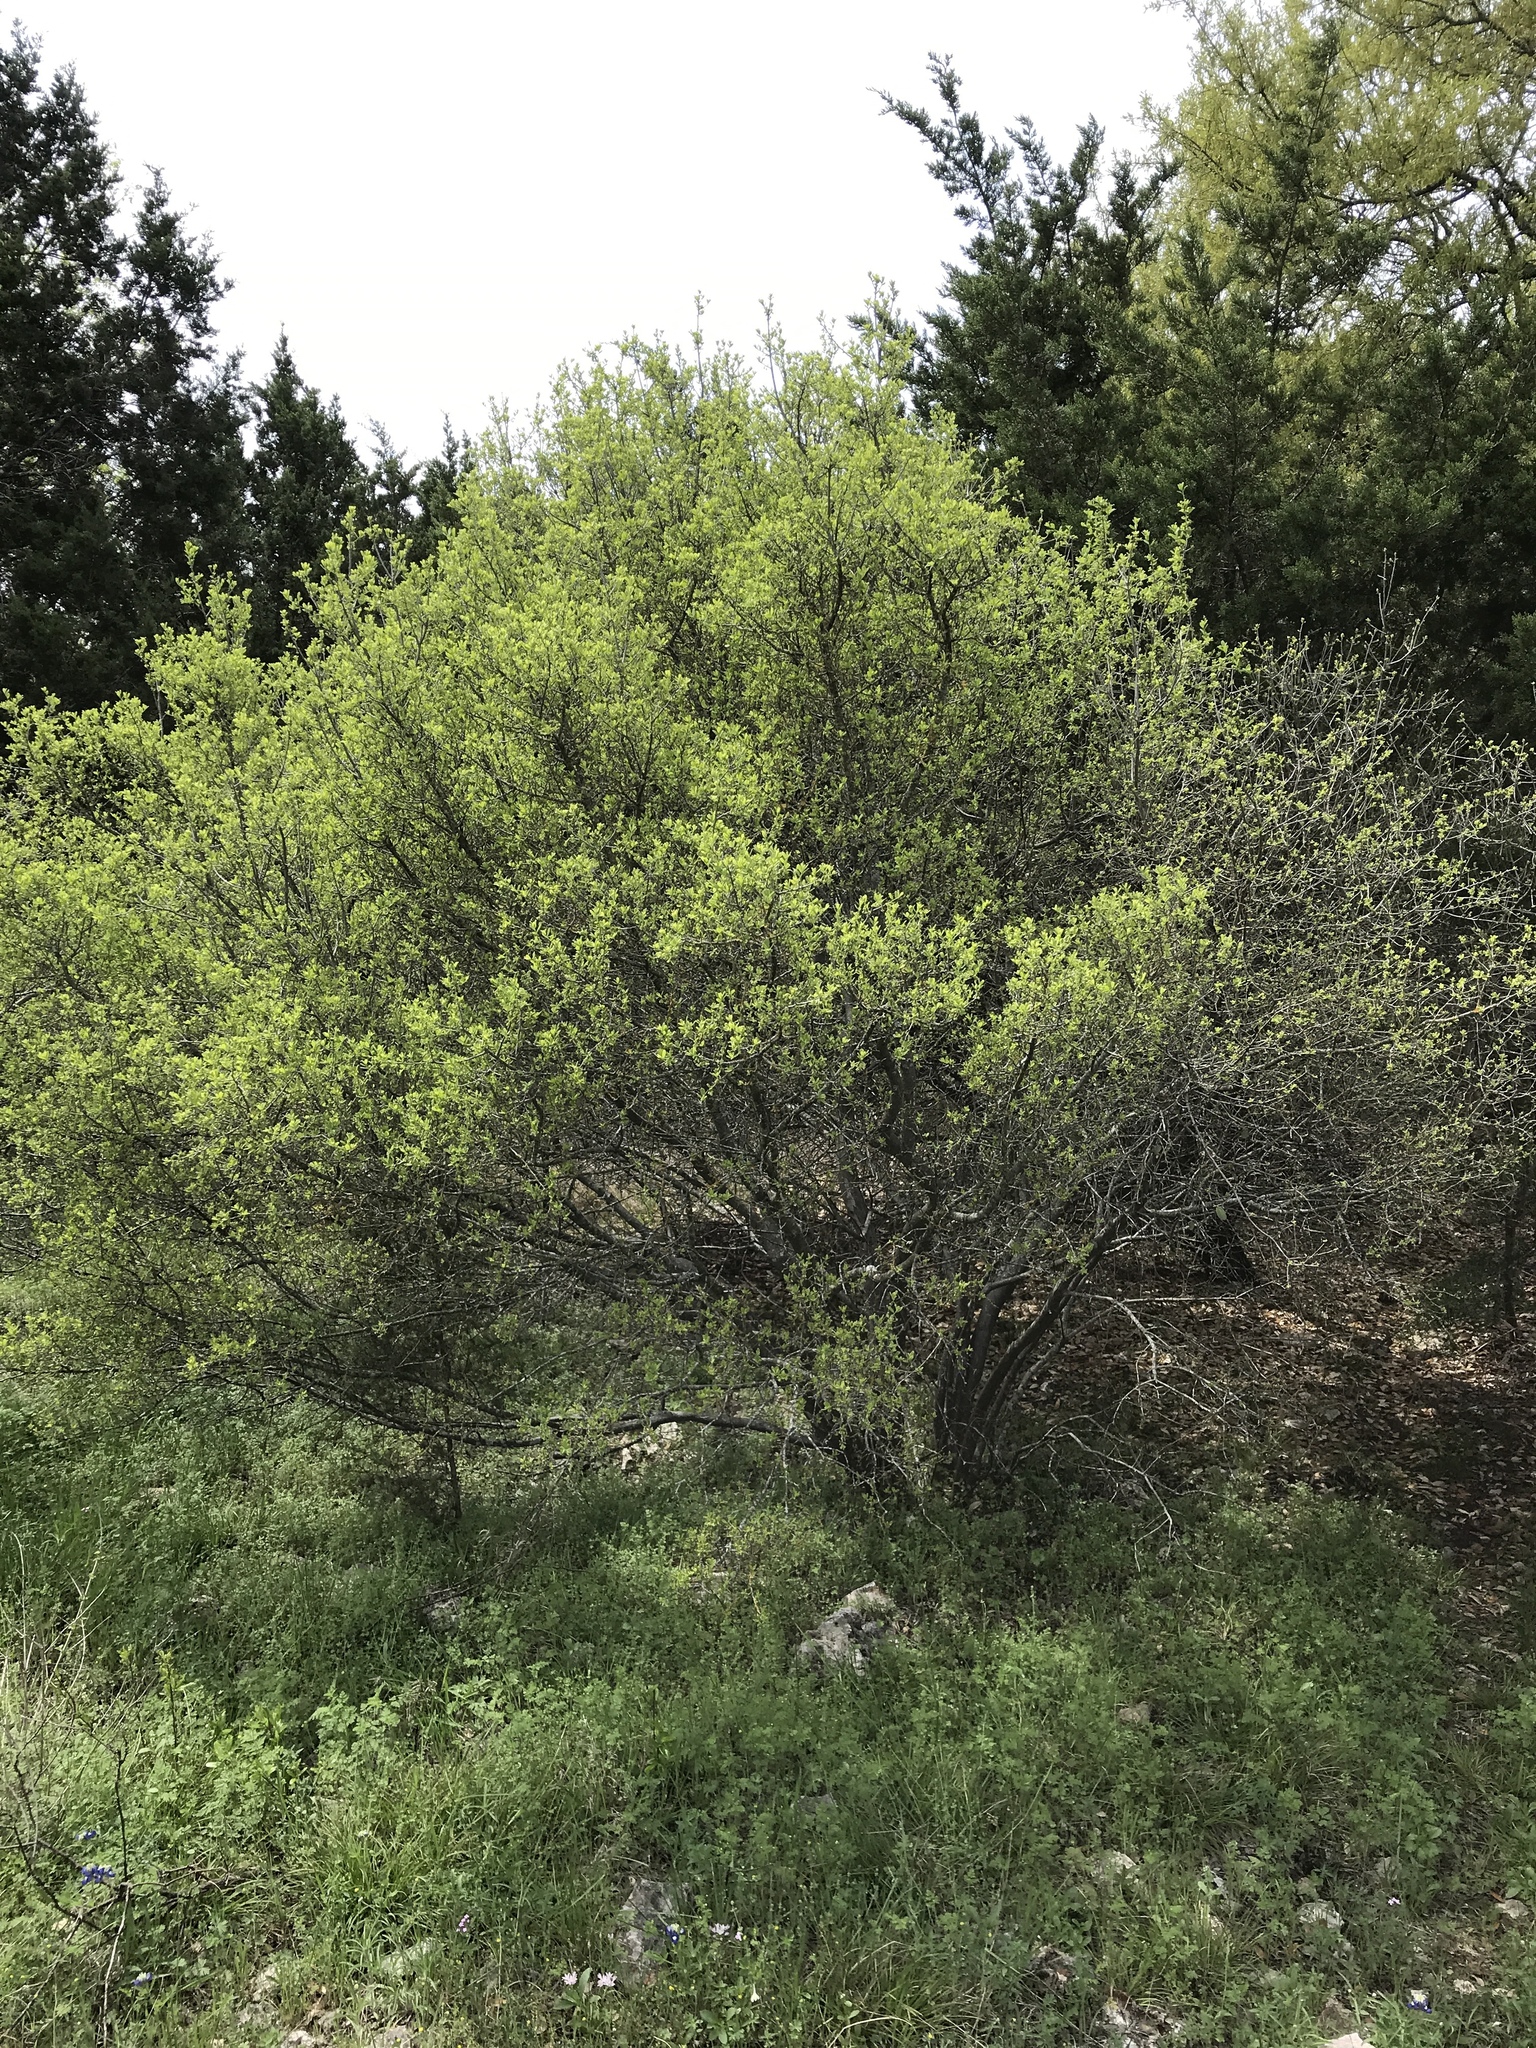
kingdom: Plantae
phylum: Tracheophyta
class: Magnoliopsida
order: Ericales
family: Ebenaceae
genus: Diospyros
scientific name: Diospyros texana
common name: Texas persimmon
